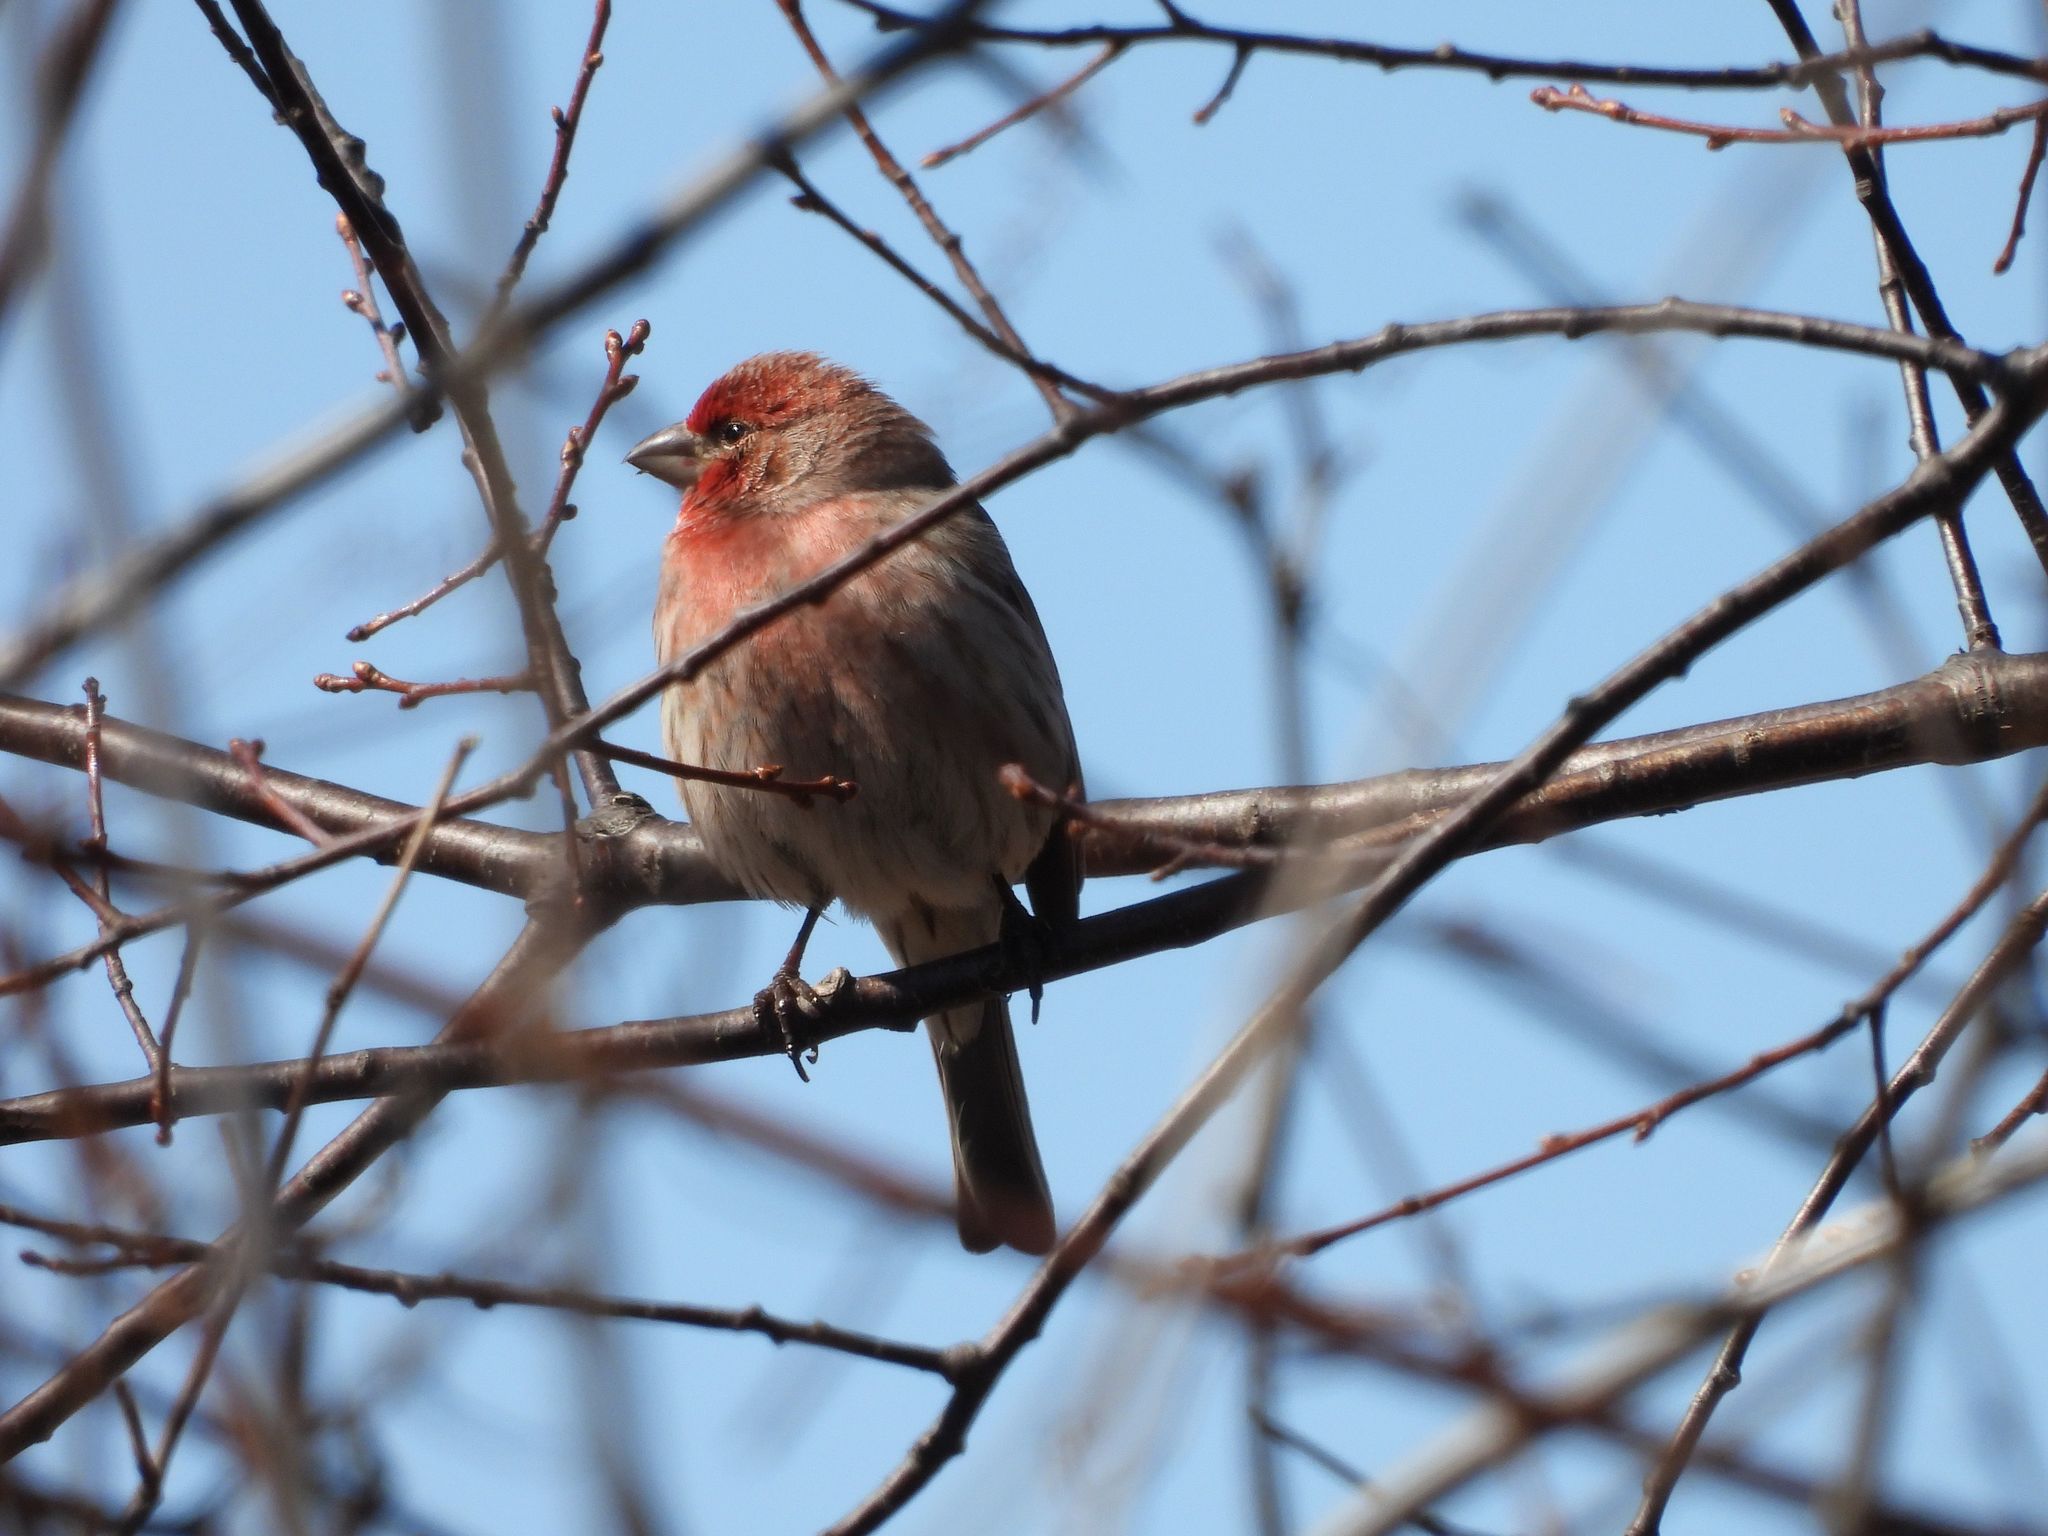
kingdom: Animalia
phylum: Chordata
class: Aves
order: Passeriformes
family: Fringillidae
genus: Haemorhous
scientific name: Haemorhous mexicanus
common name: House finch
